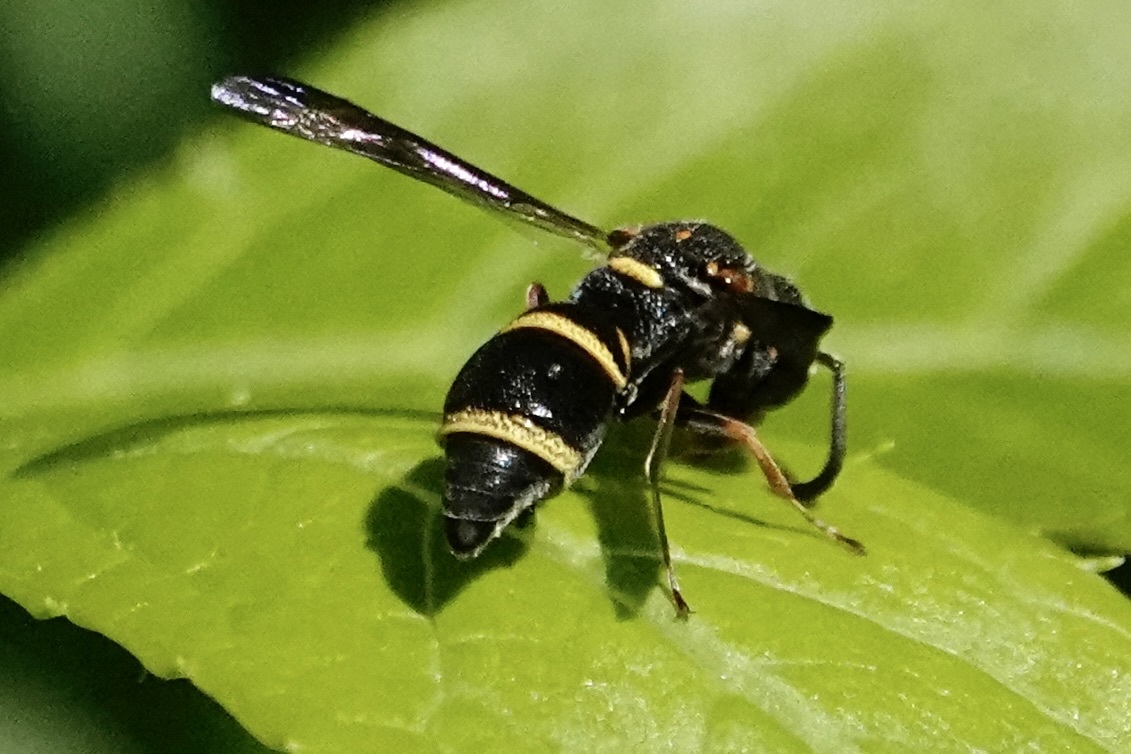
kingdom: Animalia
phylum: Arthropoda
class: Insecta
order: Hymenoptera
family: Eumenidae
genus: Parancistrocerus
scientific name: Parancistrocerus fulvipes
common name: Potter wasp
